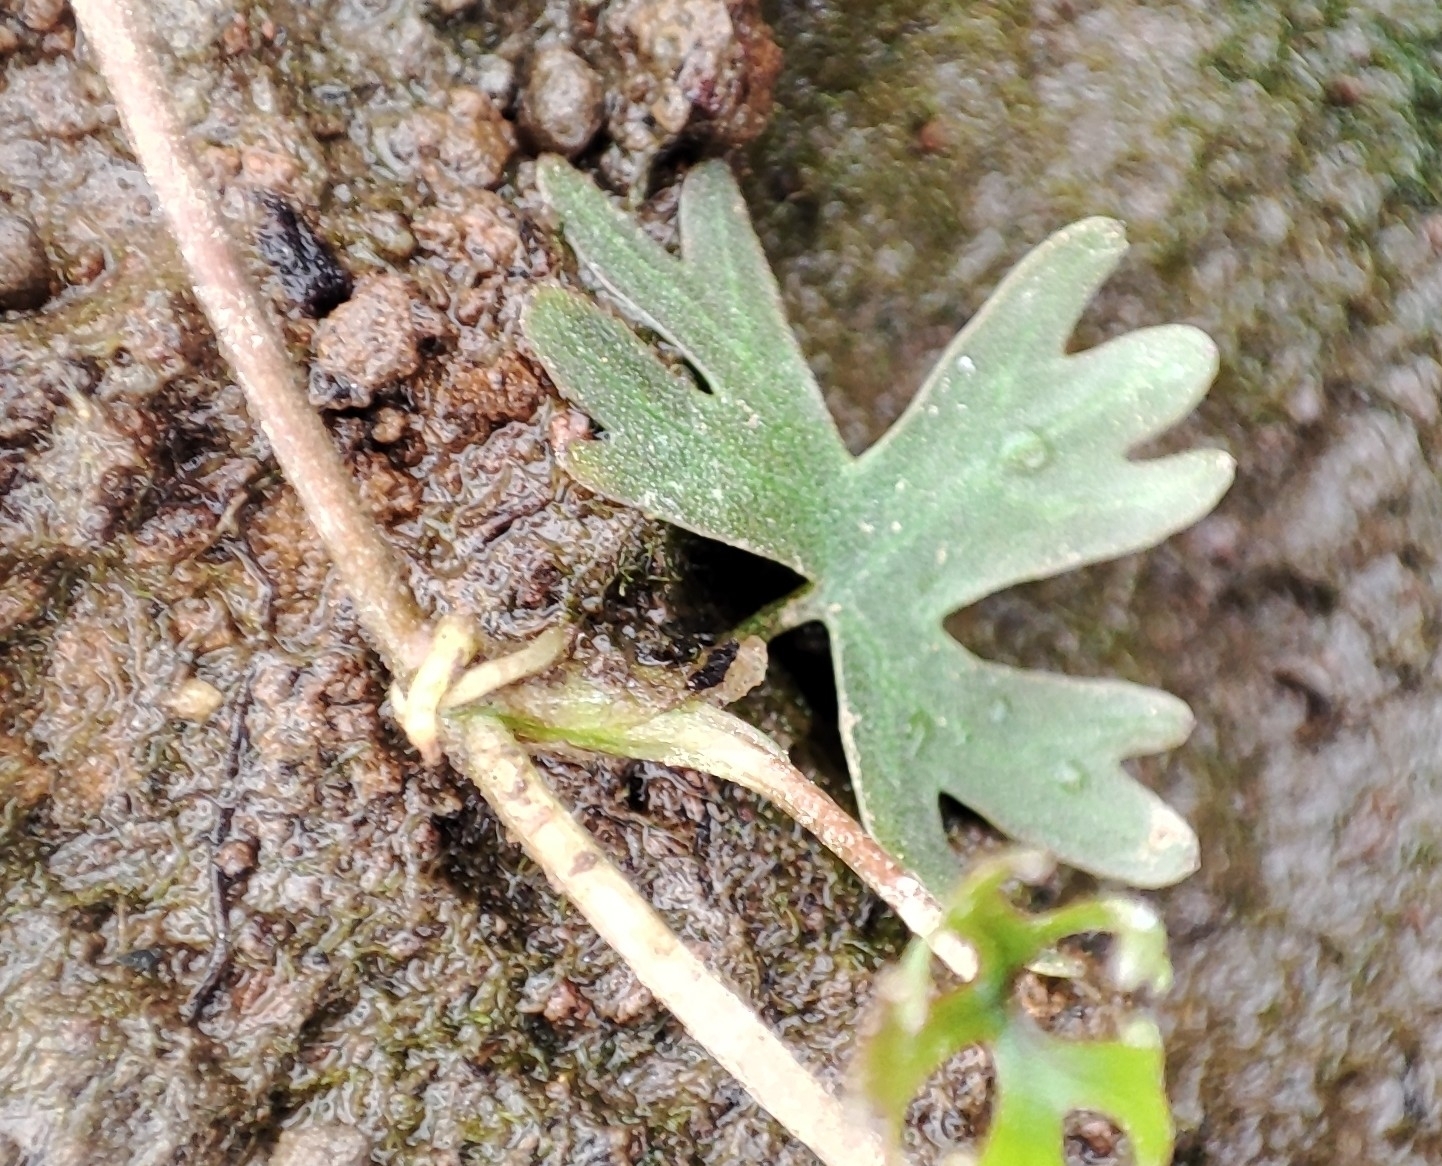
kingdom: Plantae
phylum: Tracheophyta
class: Magnoliopsida
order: Ranunculales
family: Ranunculaceae
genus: Ranunculus
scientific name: Ranunculus gmelinii
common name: Gmelin's buttercup
